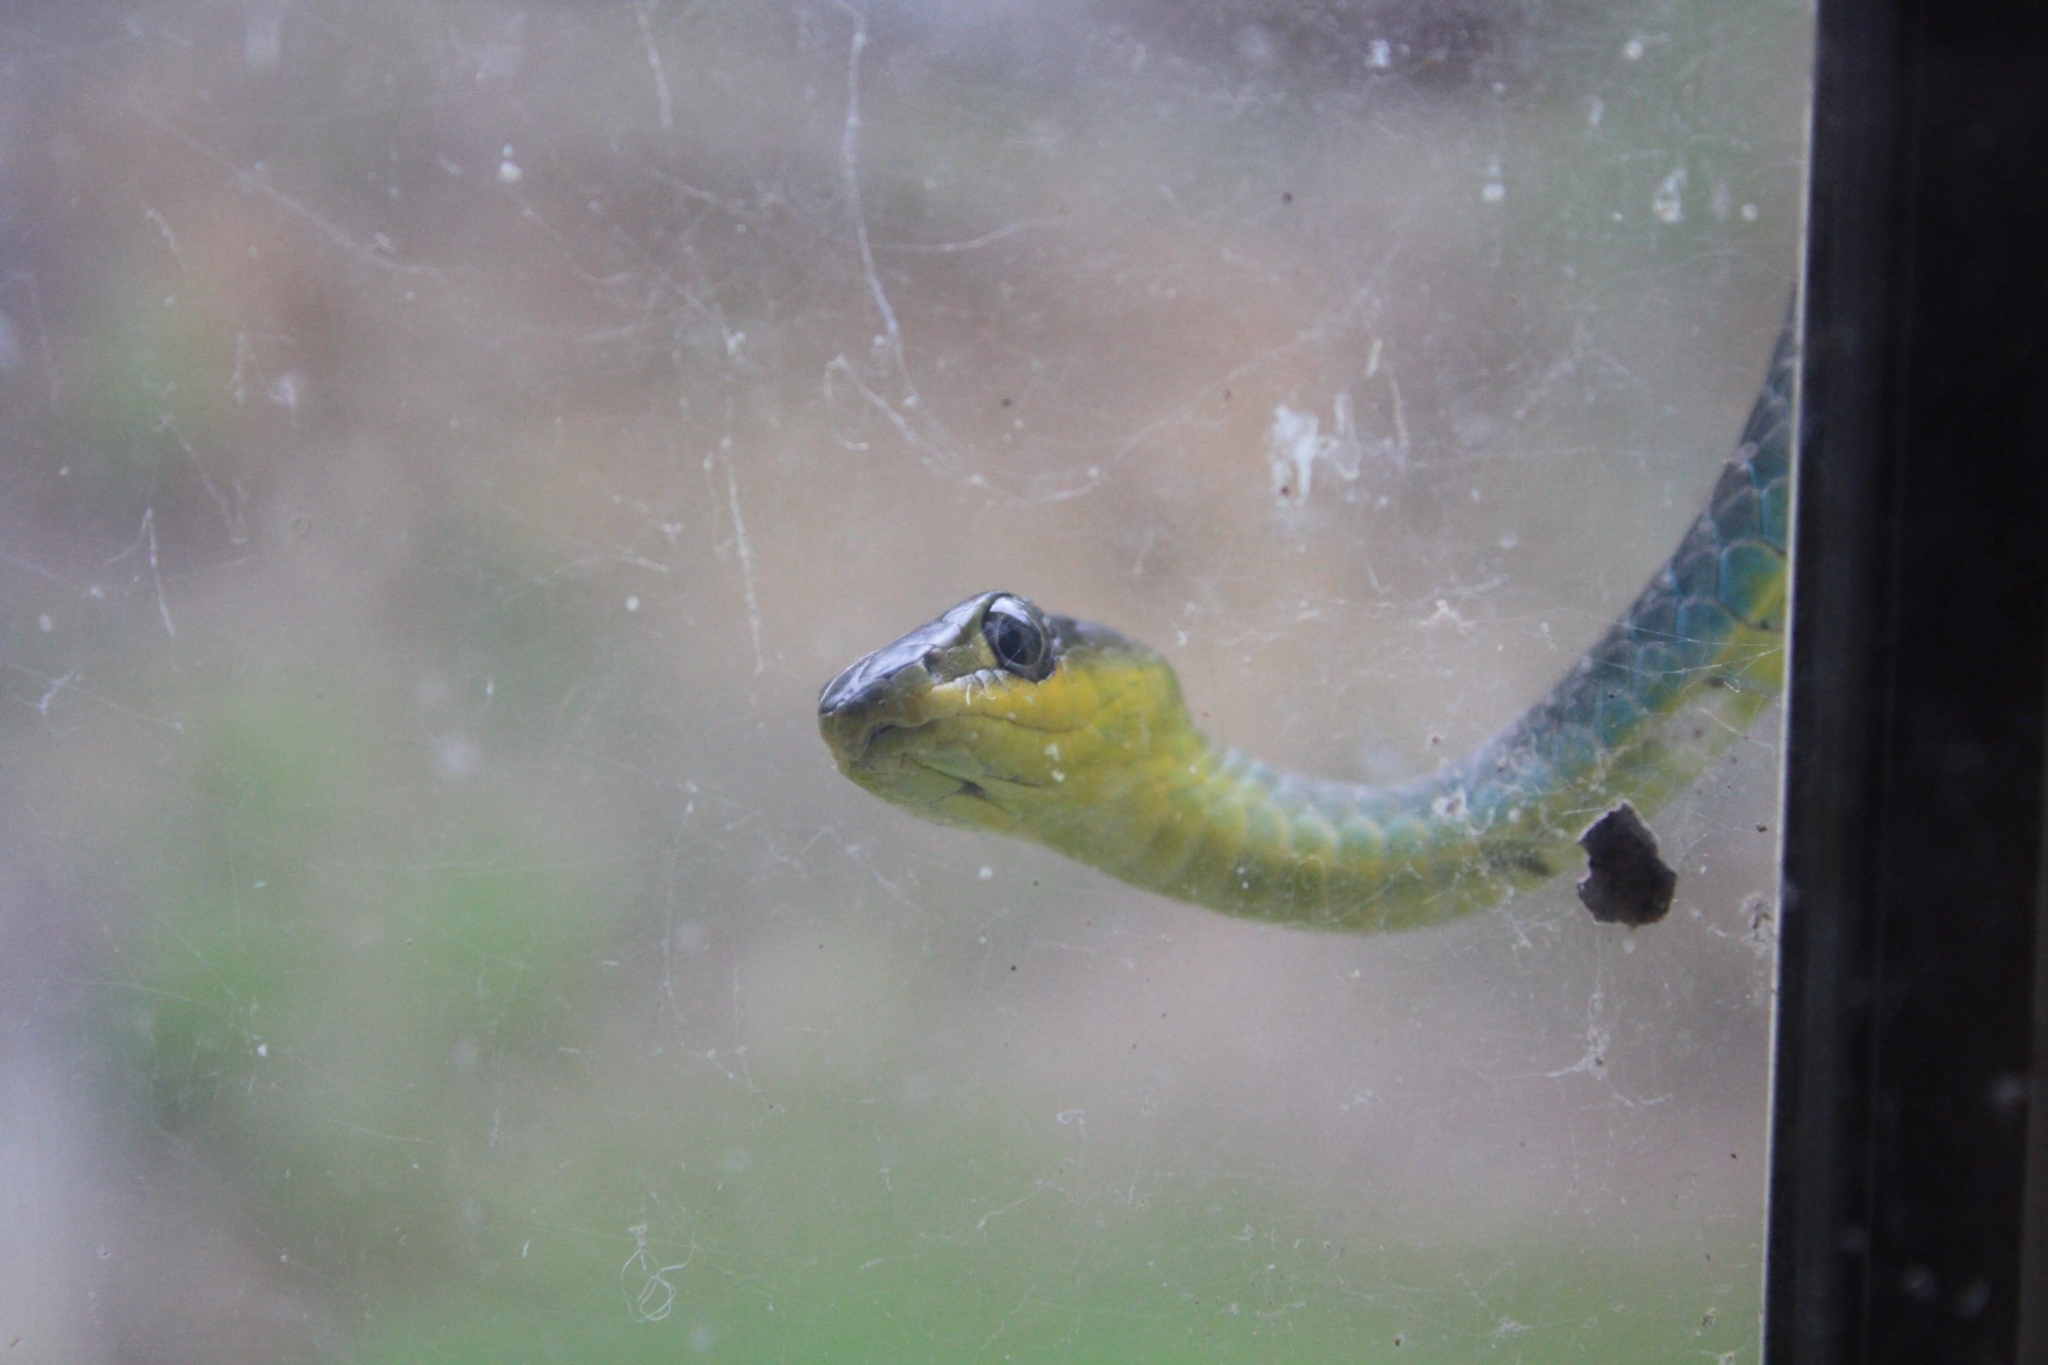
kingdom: Animalia
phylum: Chordata
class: Squamata
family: Colubridae
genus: Dendrelaphis
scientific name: Dendrelaphis punctulatus
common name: Common tree snake
